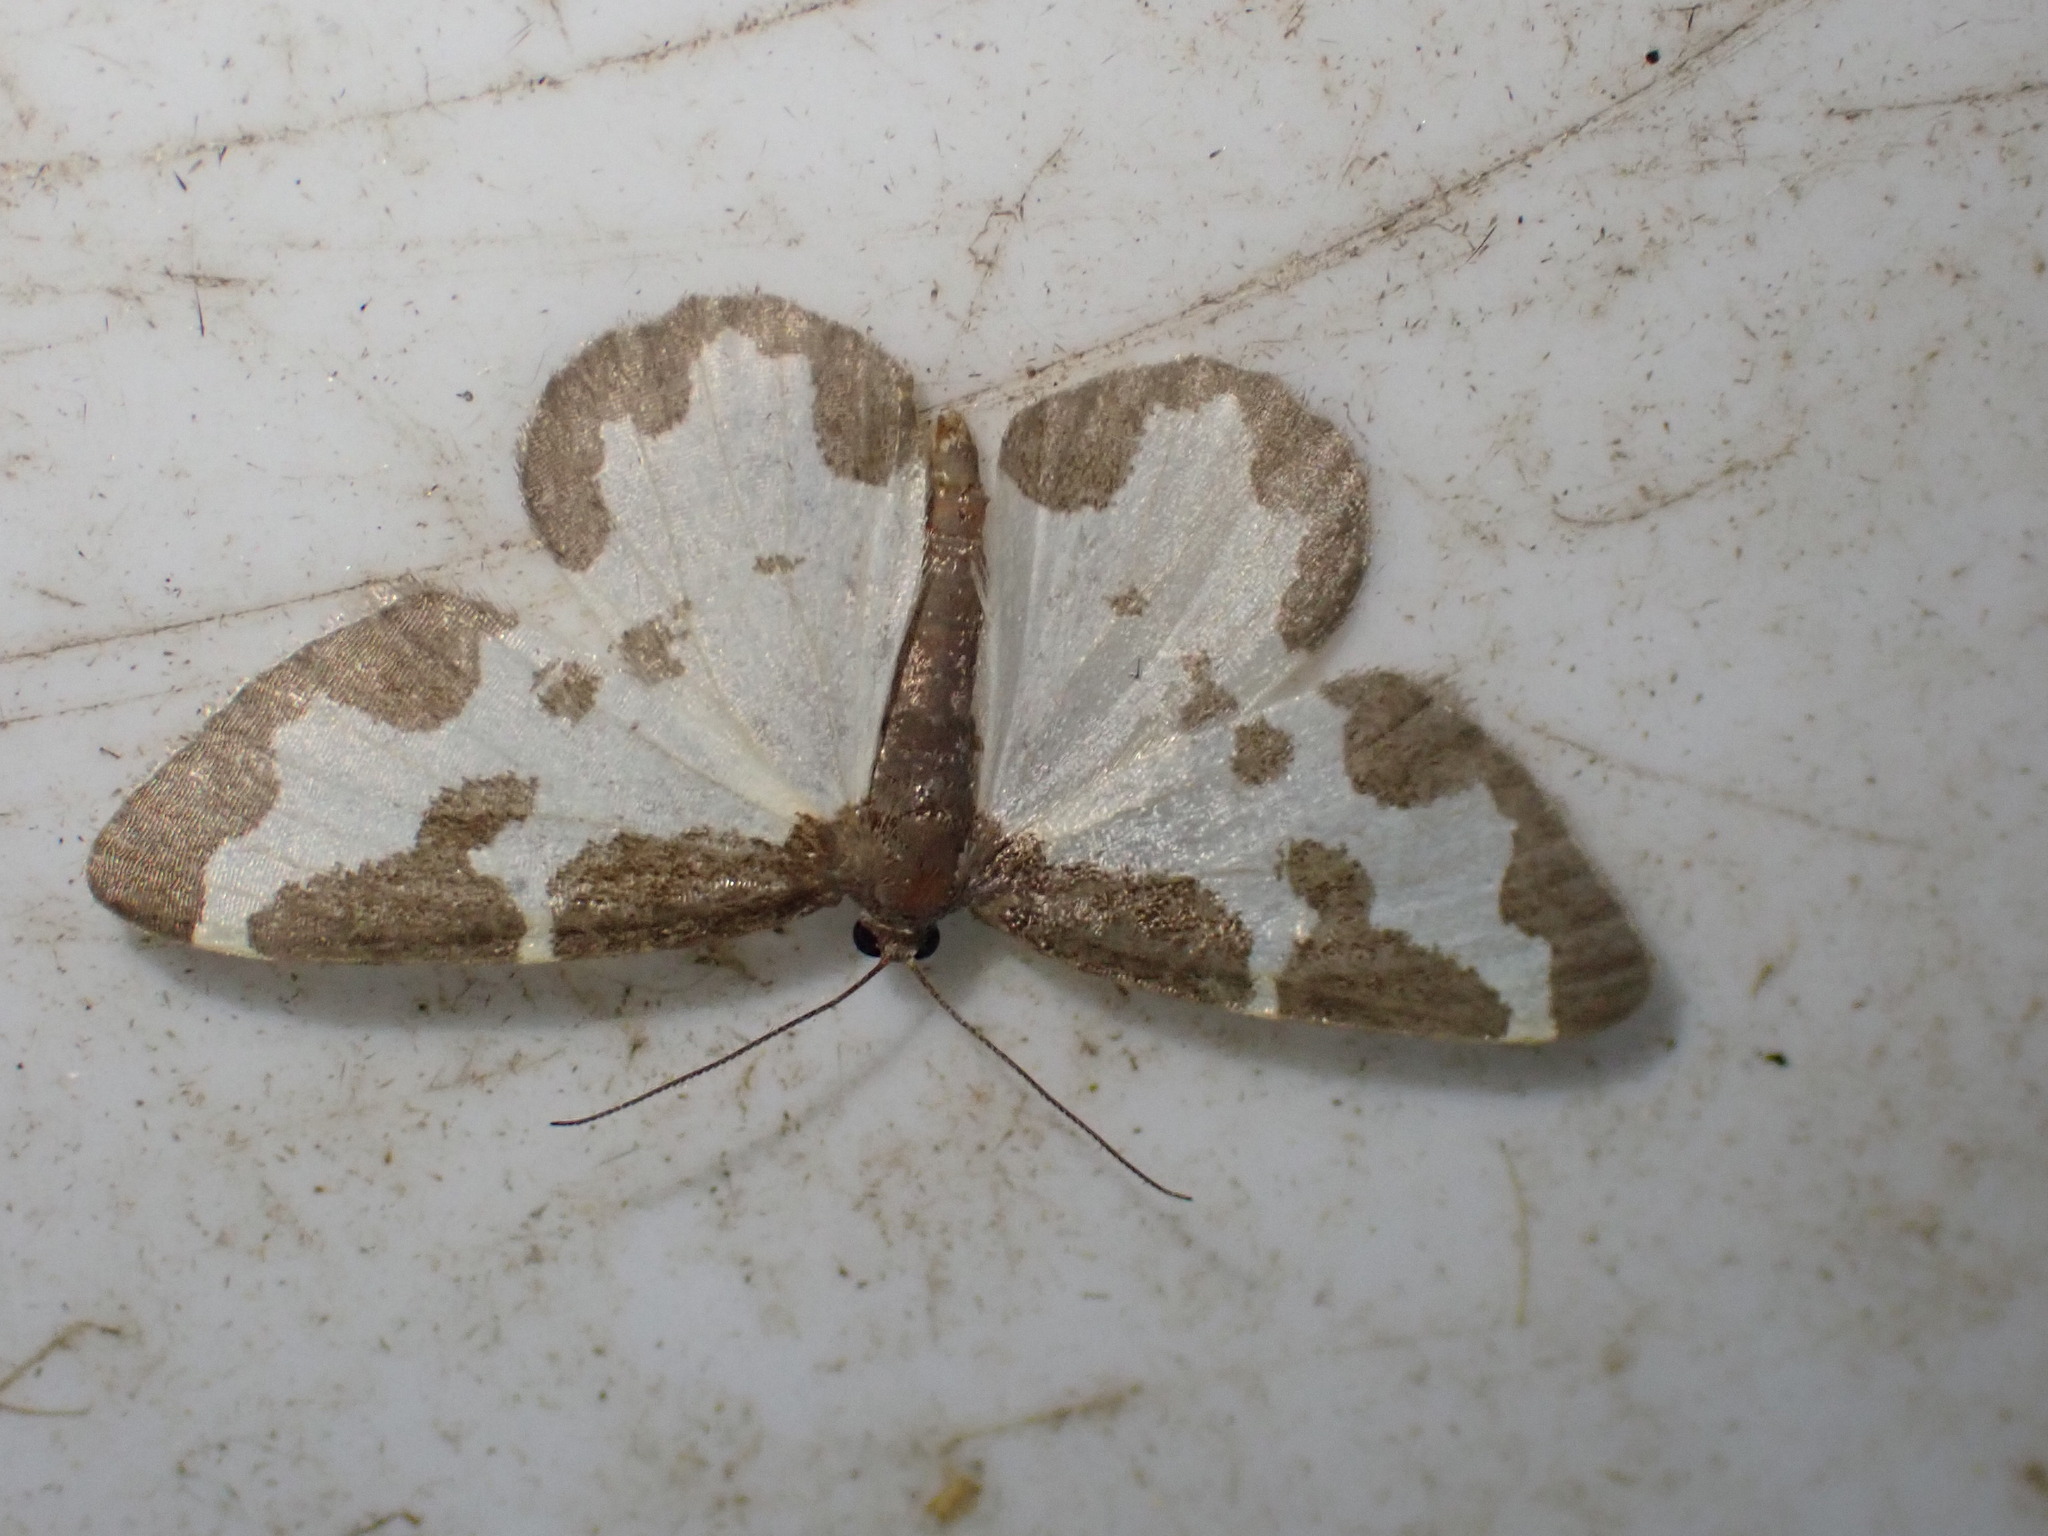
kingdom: Animalia
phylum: Arthropoda
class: Insecta
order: Lepidoptera
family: Geometridae
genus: Lomaspilis
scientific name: Lomaspilis marginata
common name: Clouded border
